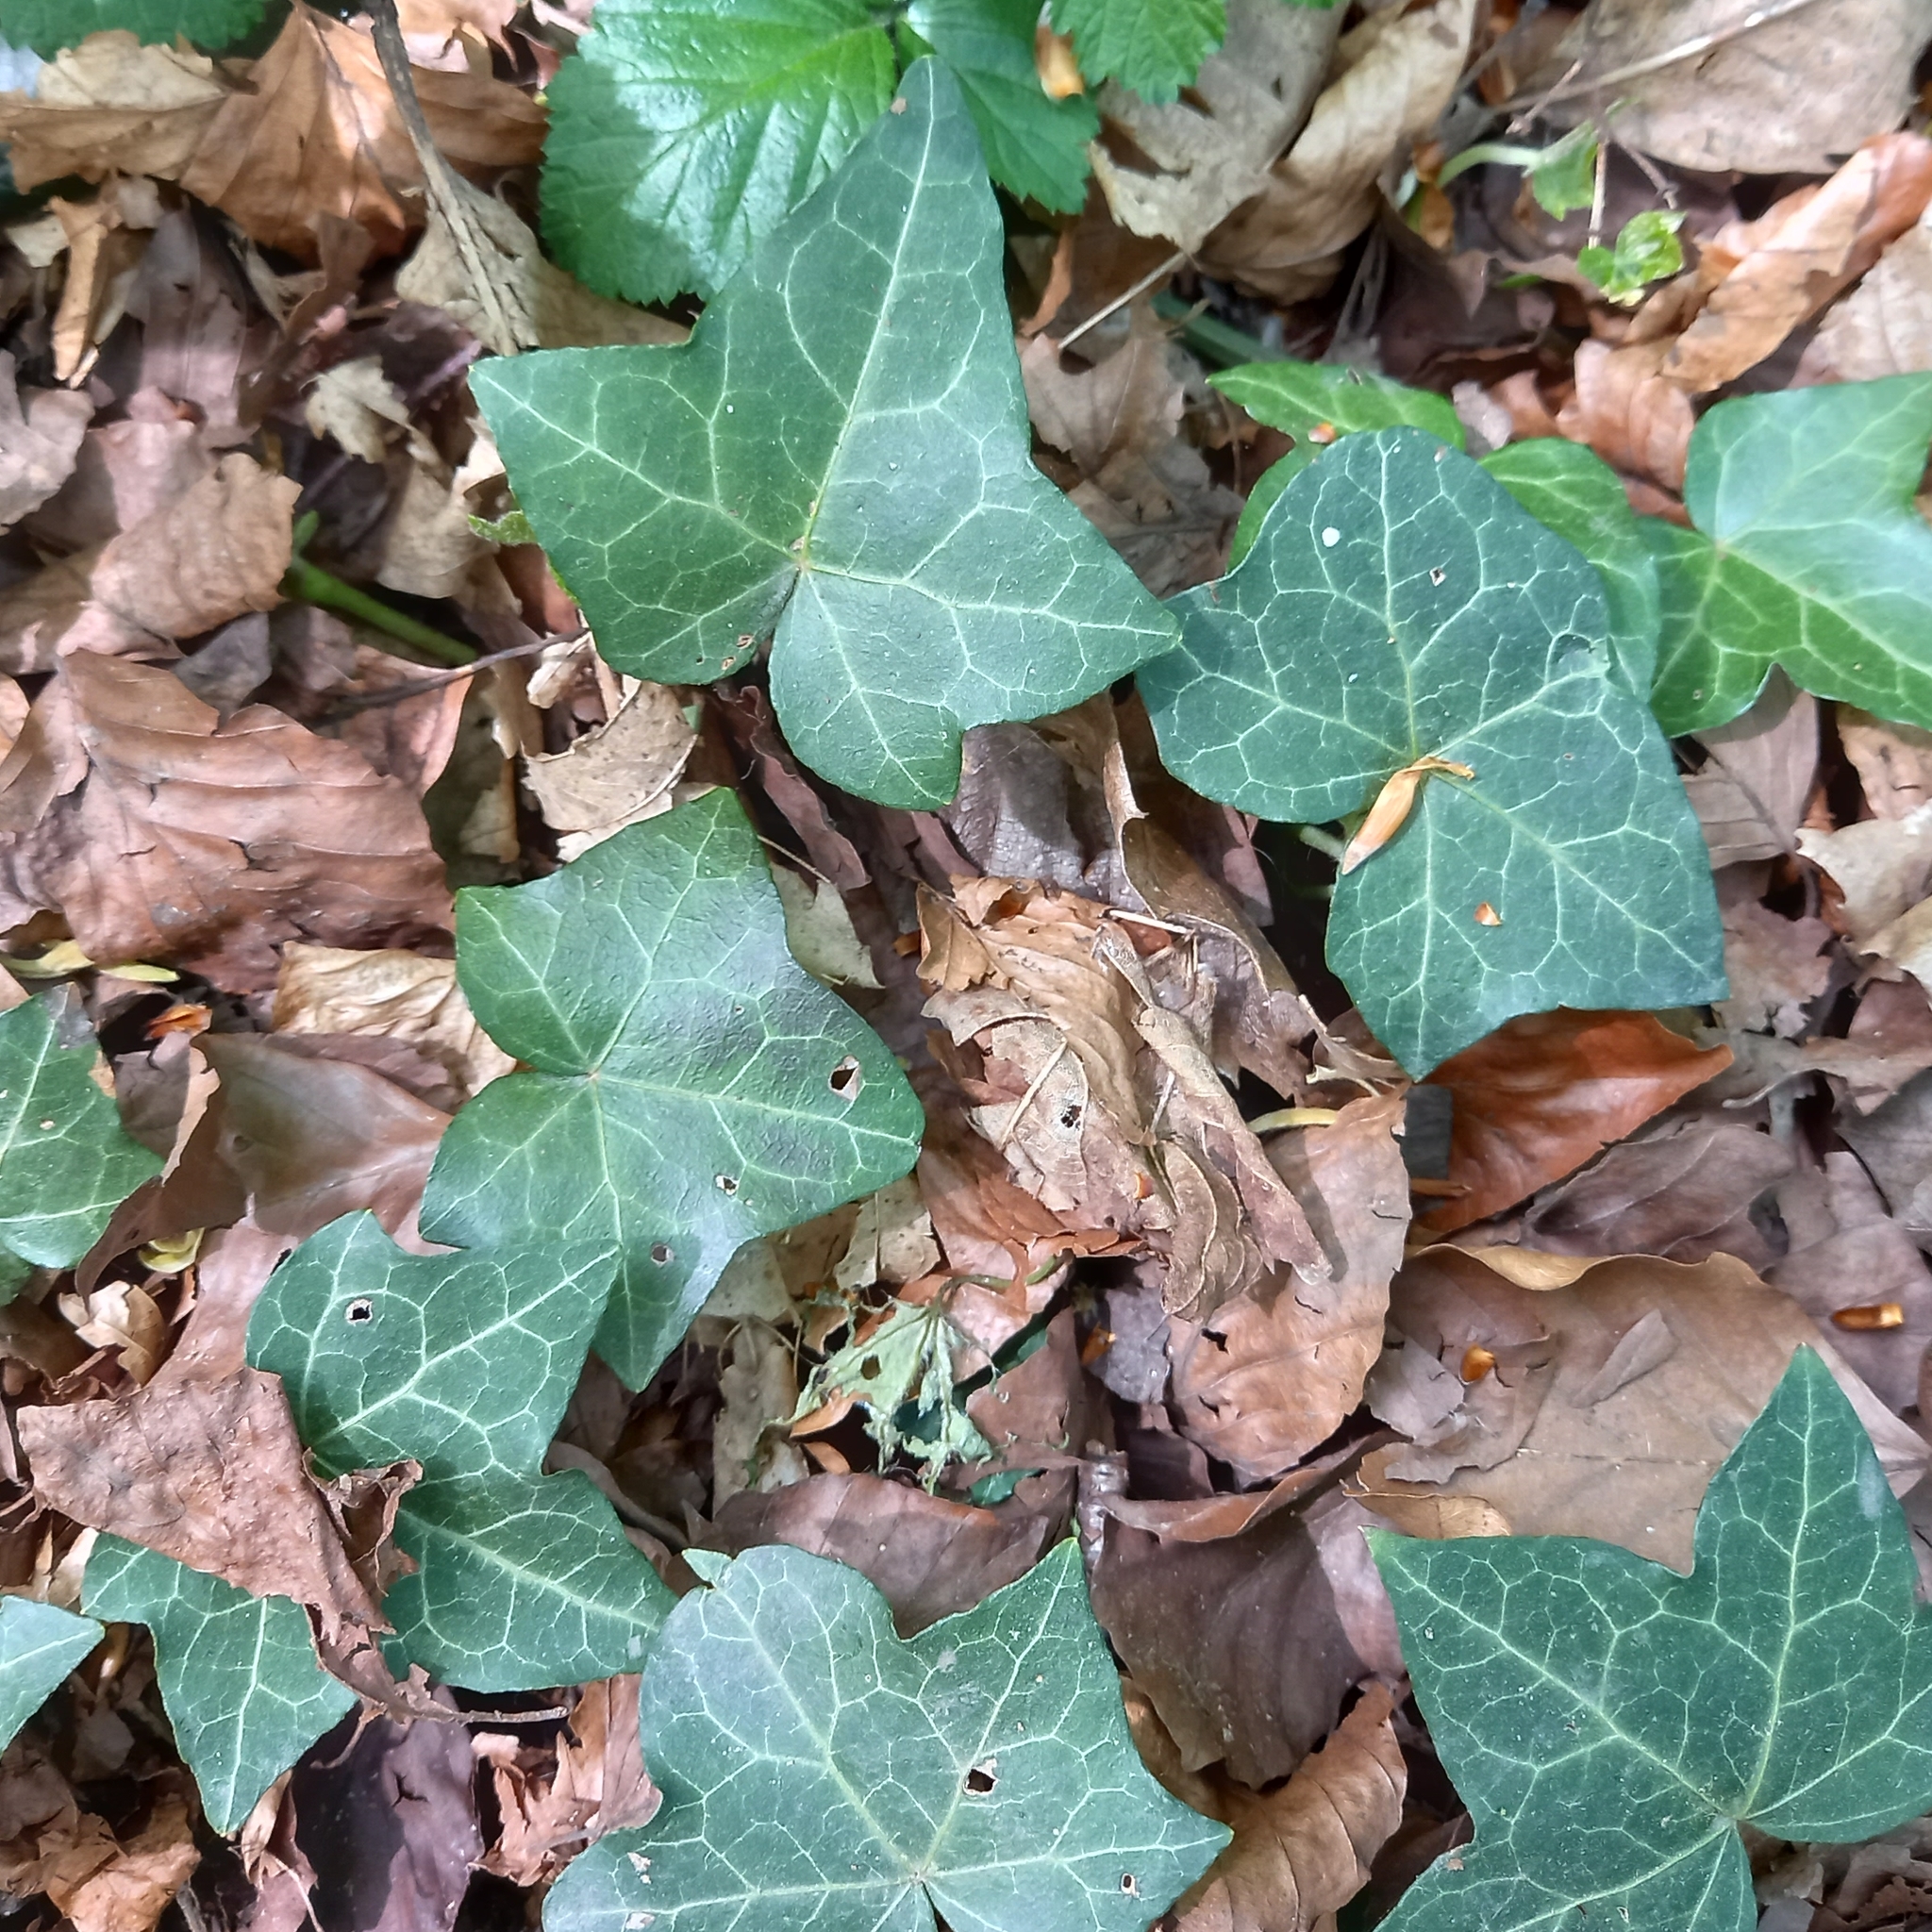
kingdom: Plantae
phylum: Tracheophyta
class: Magnoliopsida
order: Apiales
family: Araliaceae
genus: Hedera
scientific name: Hedera helix
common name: Ivy
